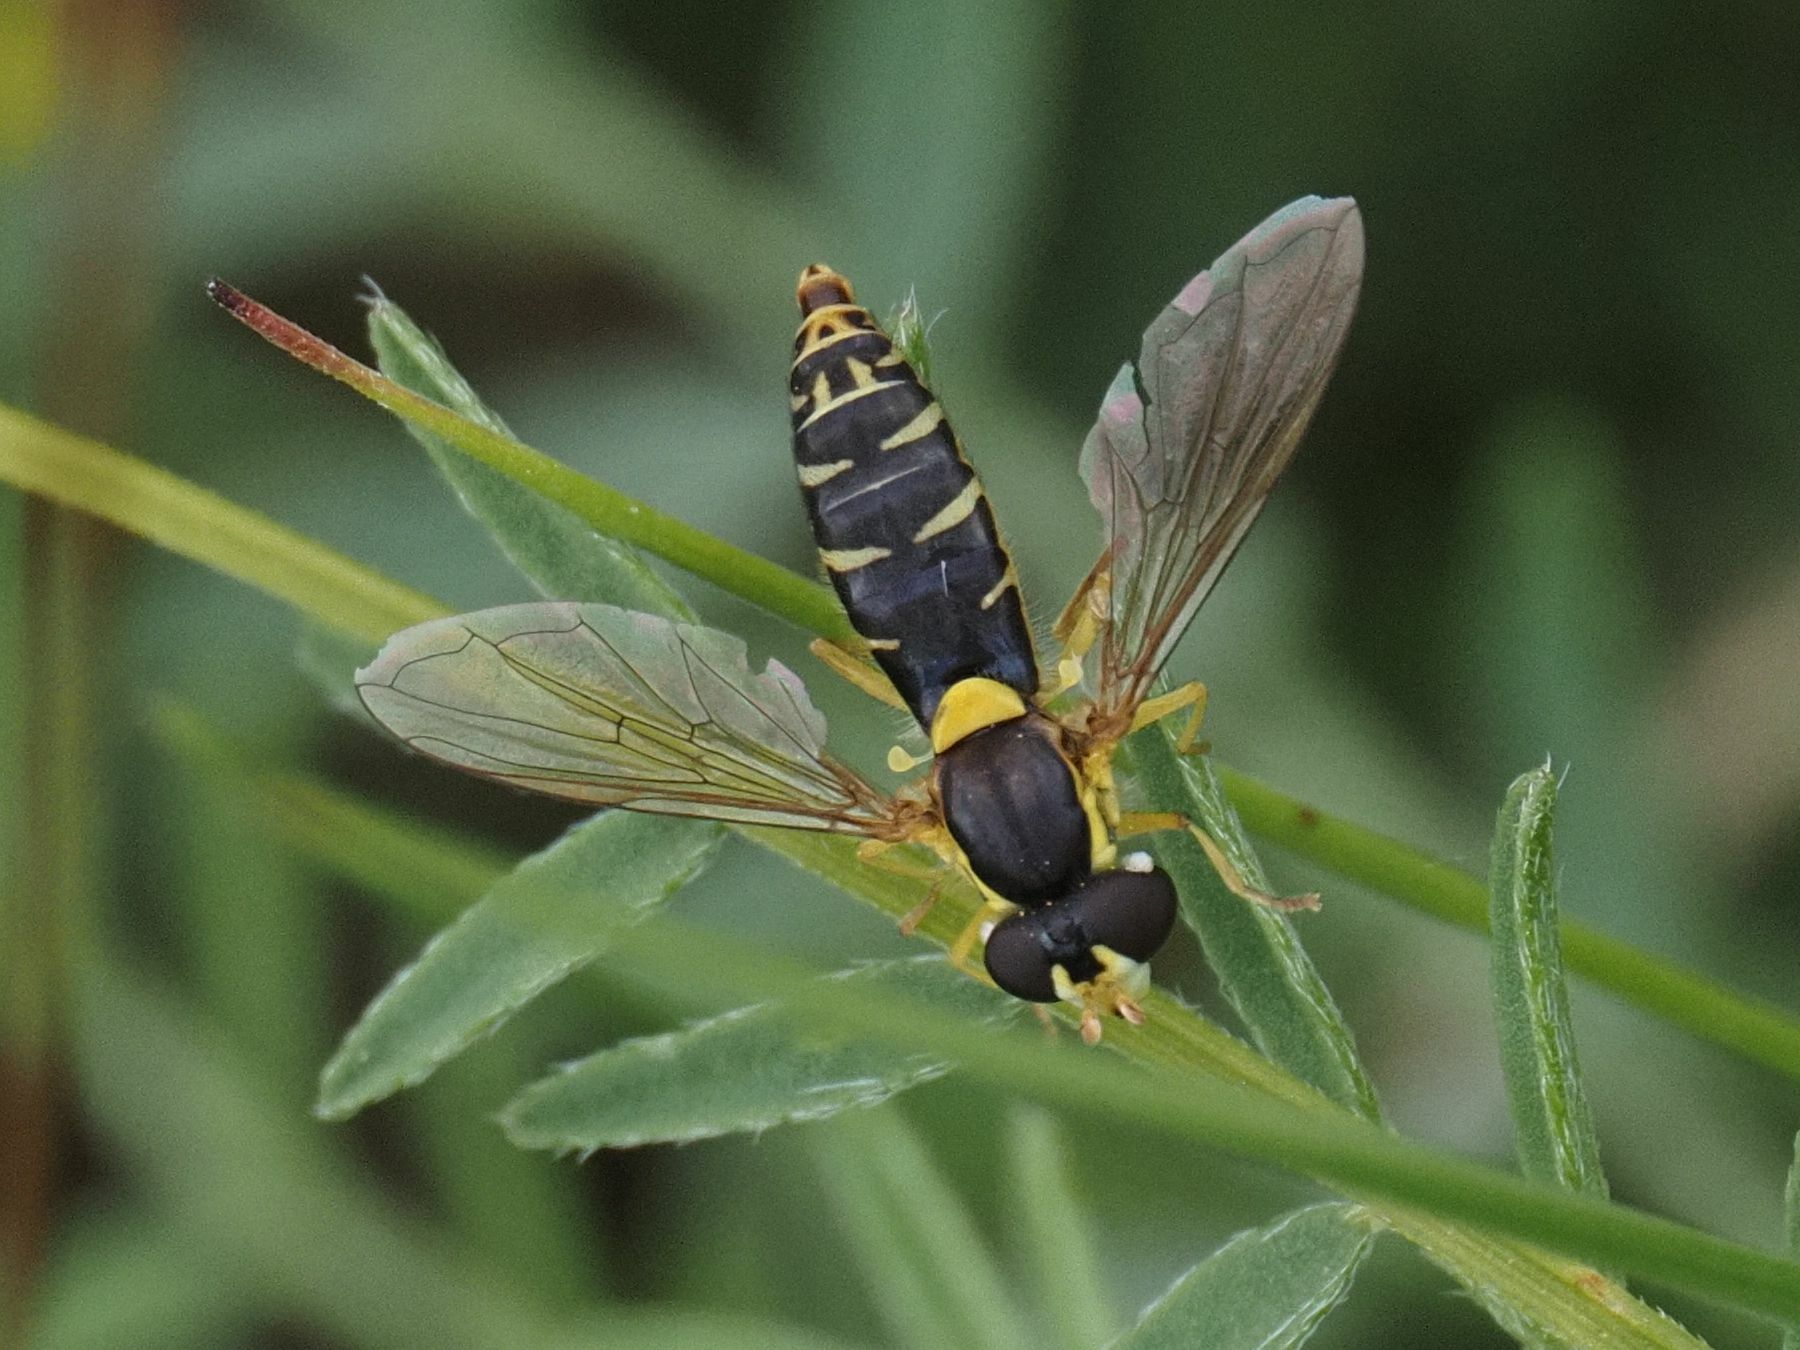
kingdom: Animalia
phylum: Arthropoda
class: Insecta
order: Diptera
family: Syrphidae
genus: Sphaerophoria
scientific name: Sphaerophoria
